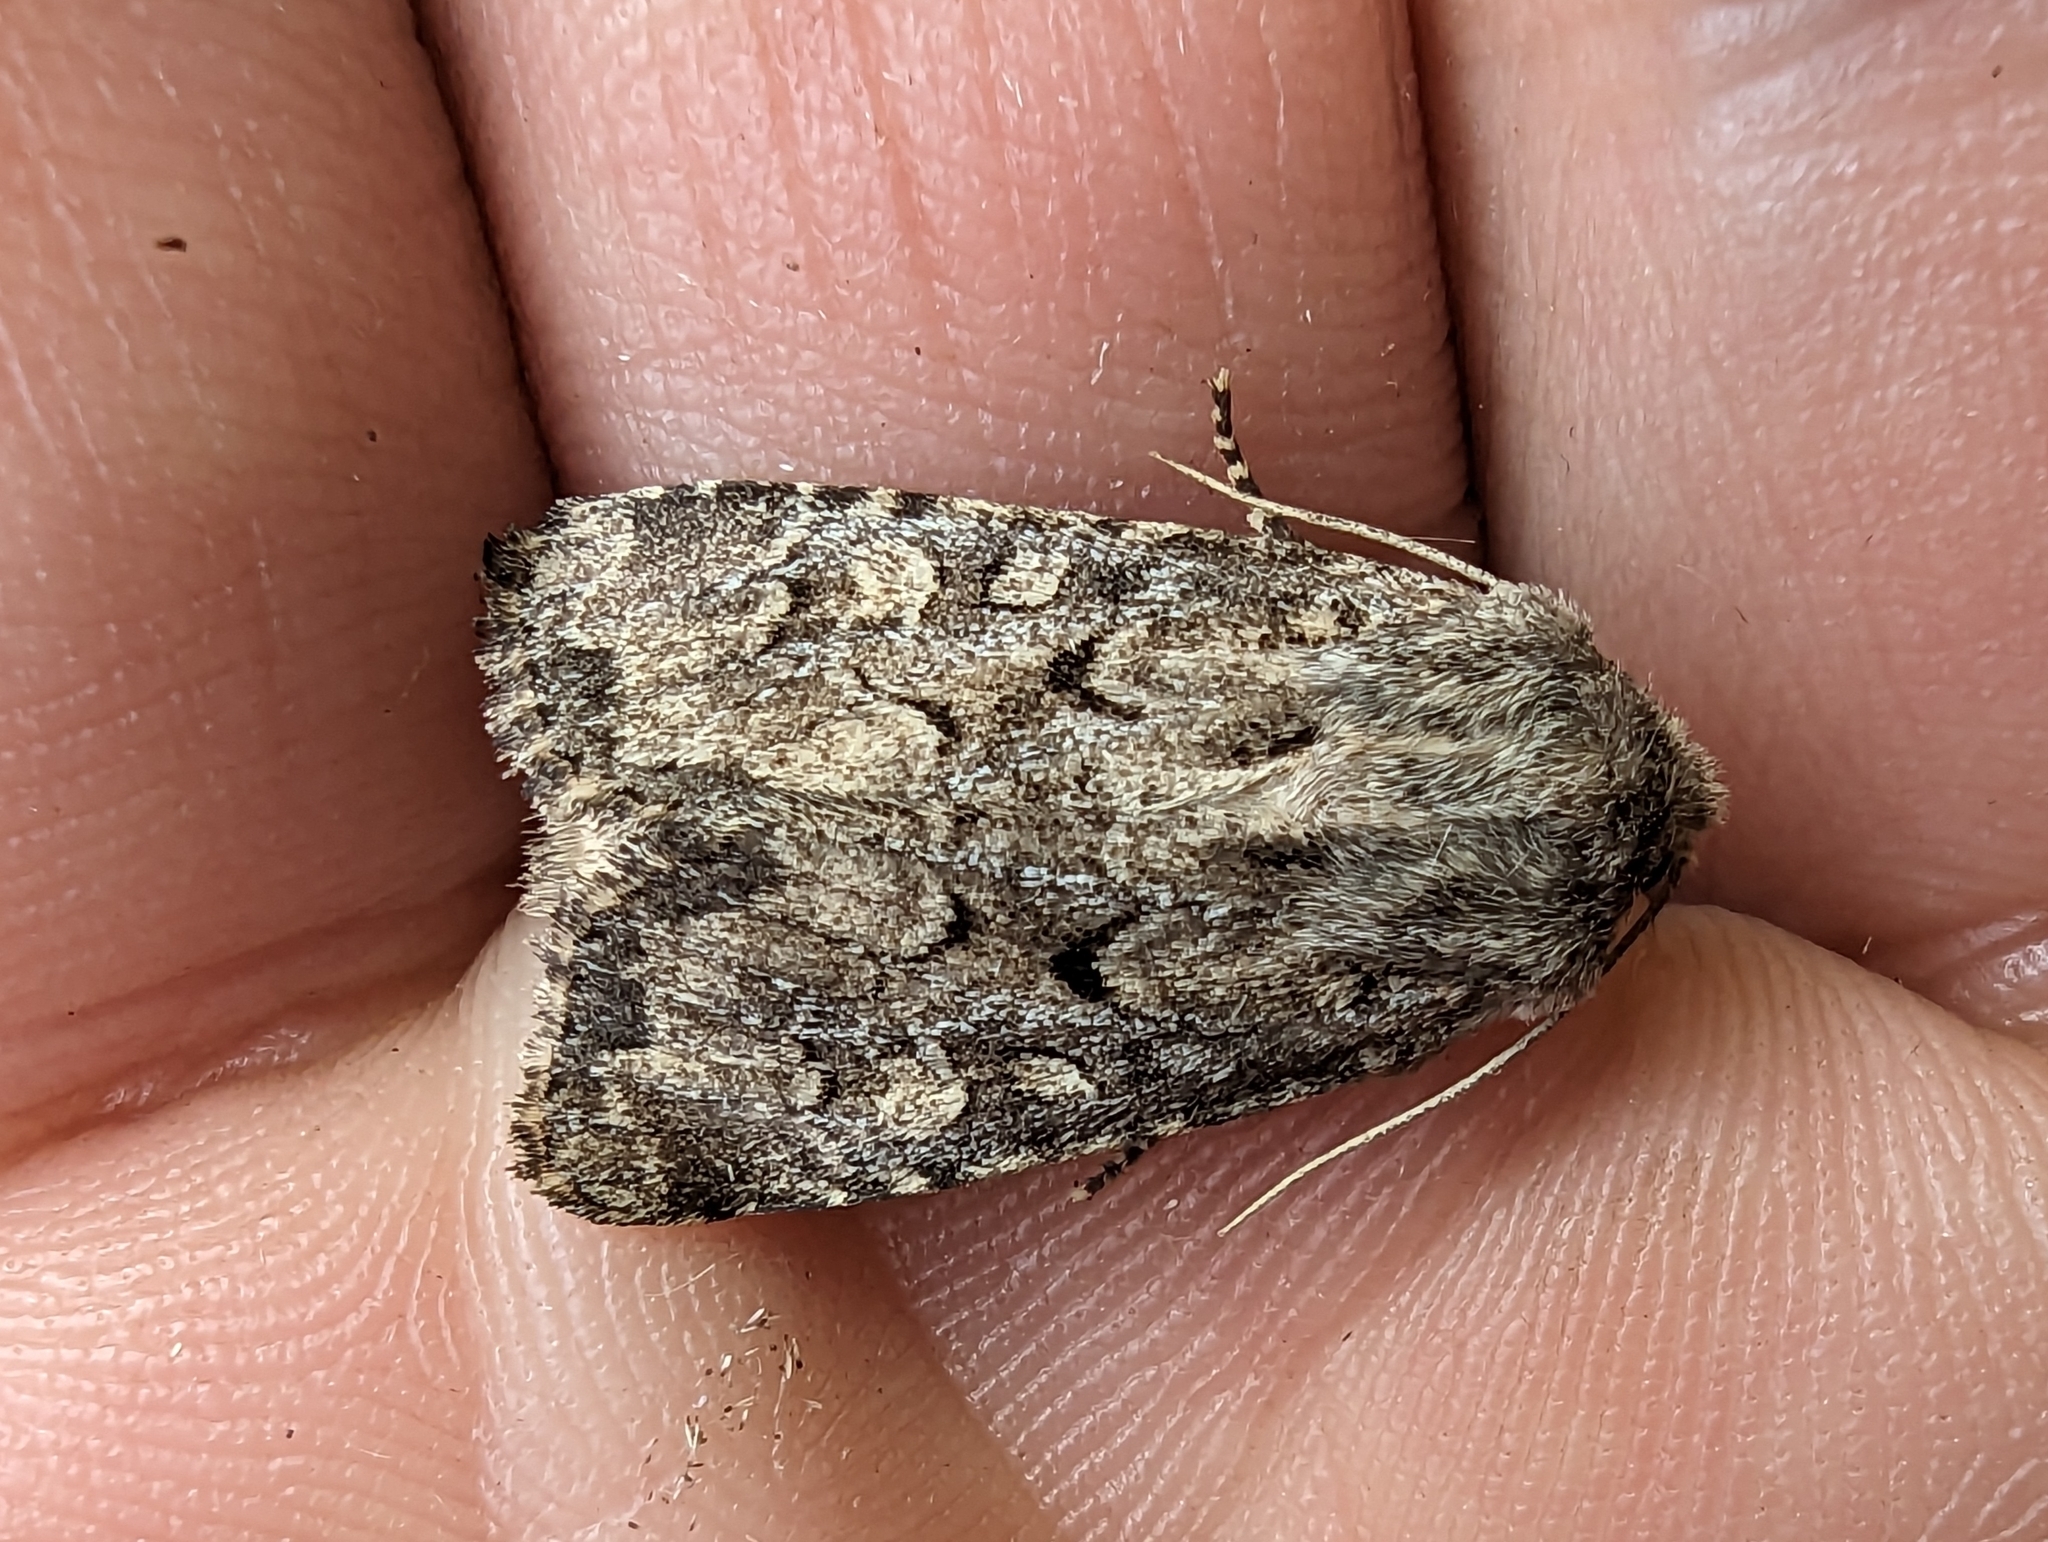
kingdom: Animalia
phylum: Arthropoda
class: Insecta
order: Lepidoptera
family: Noctuidae
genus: Luperina
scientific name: Luperina testacea
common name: Flounced rustic
